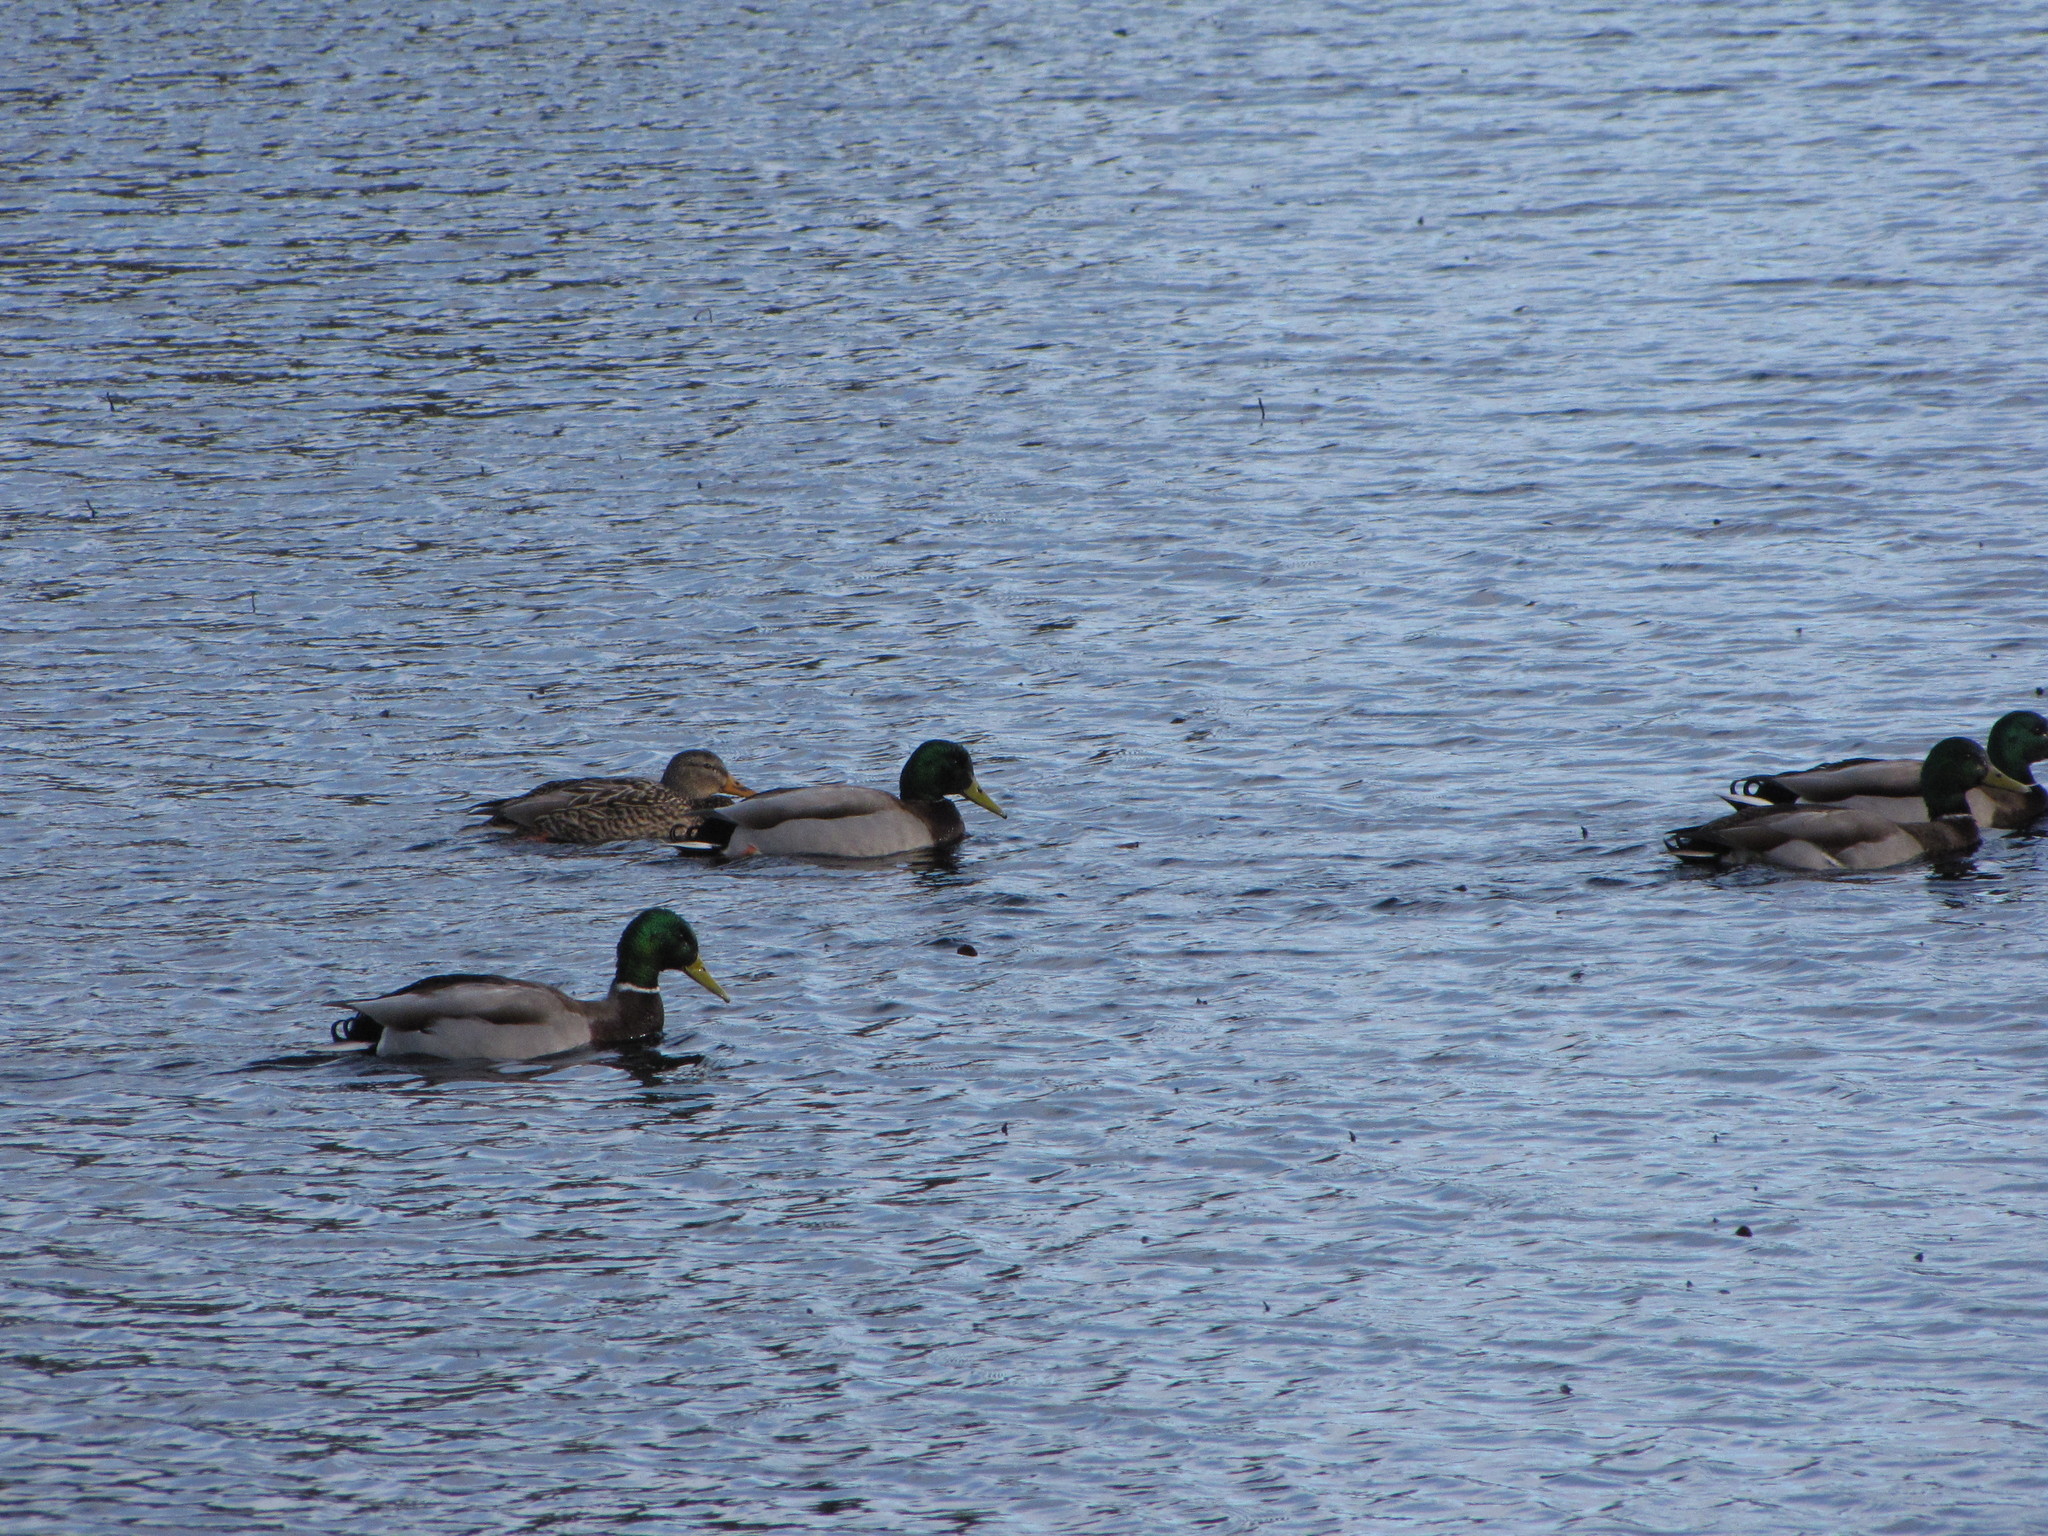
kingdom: Animalia
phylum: Chordata
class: Aves
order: Anseriformes
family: Anatidae
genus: Anas
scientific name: Anas platyrhynchos
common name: Mallard
